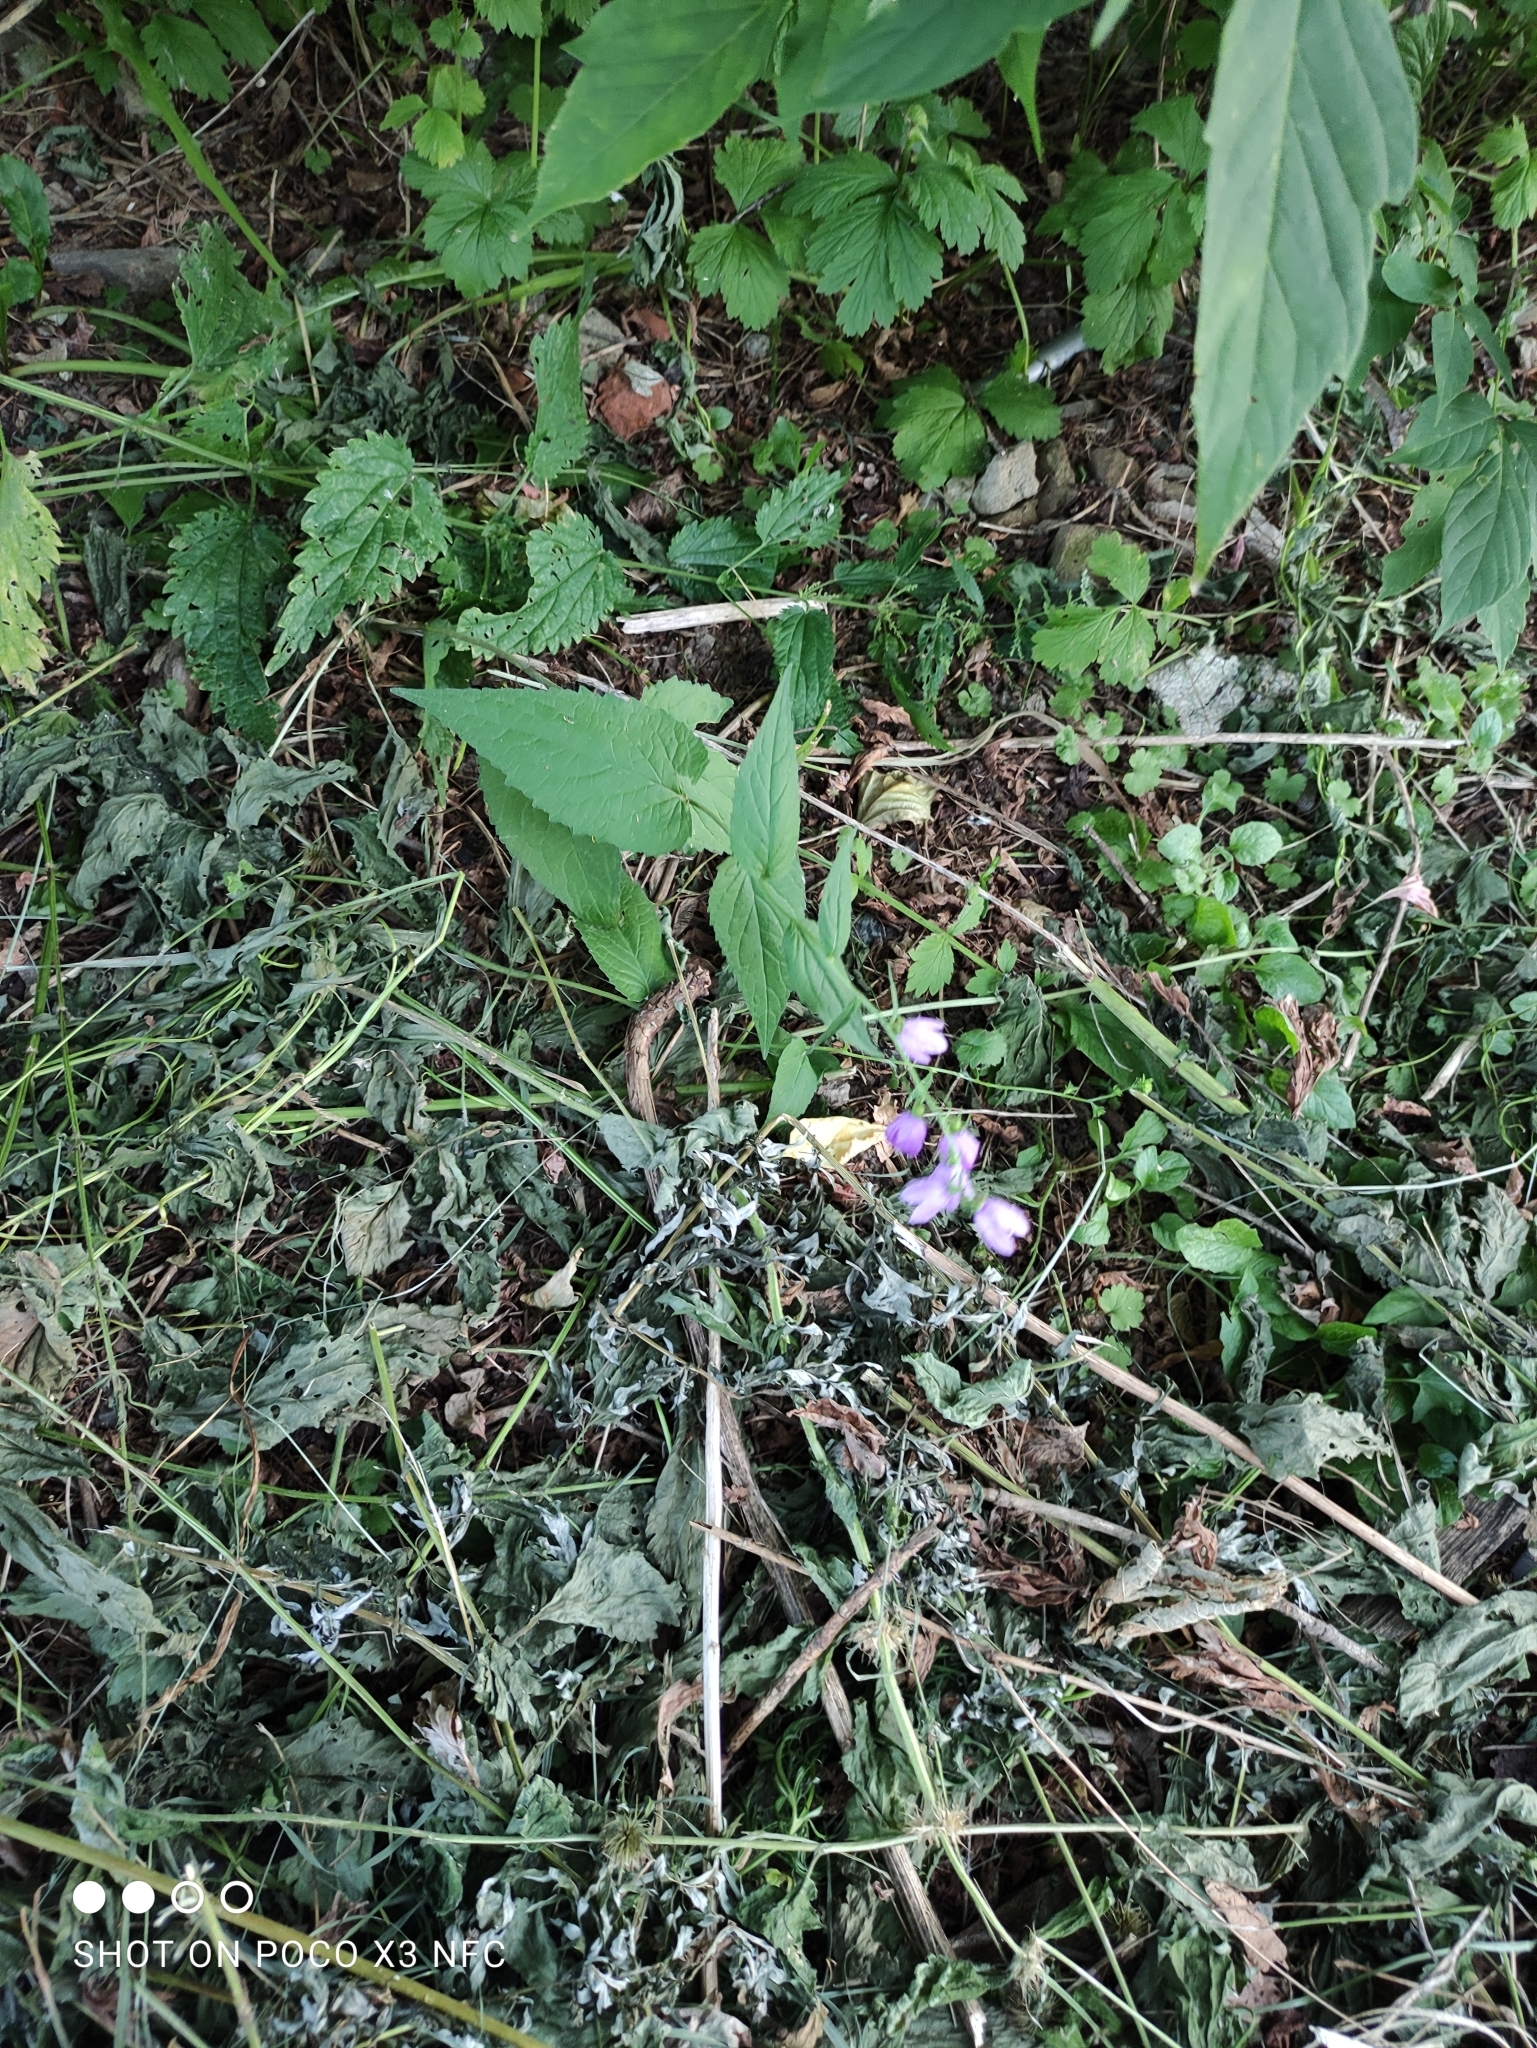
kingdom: Plantae
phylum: Tracheophyta
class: Magnoliopsida
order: Asterales
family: Campanulaceae
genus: Campanula
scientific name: Campanula rapunculoides
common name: Creeping bellflower
